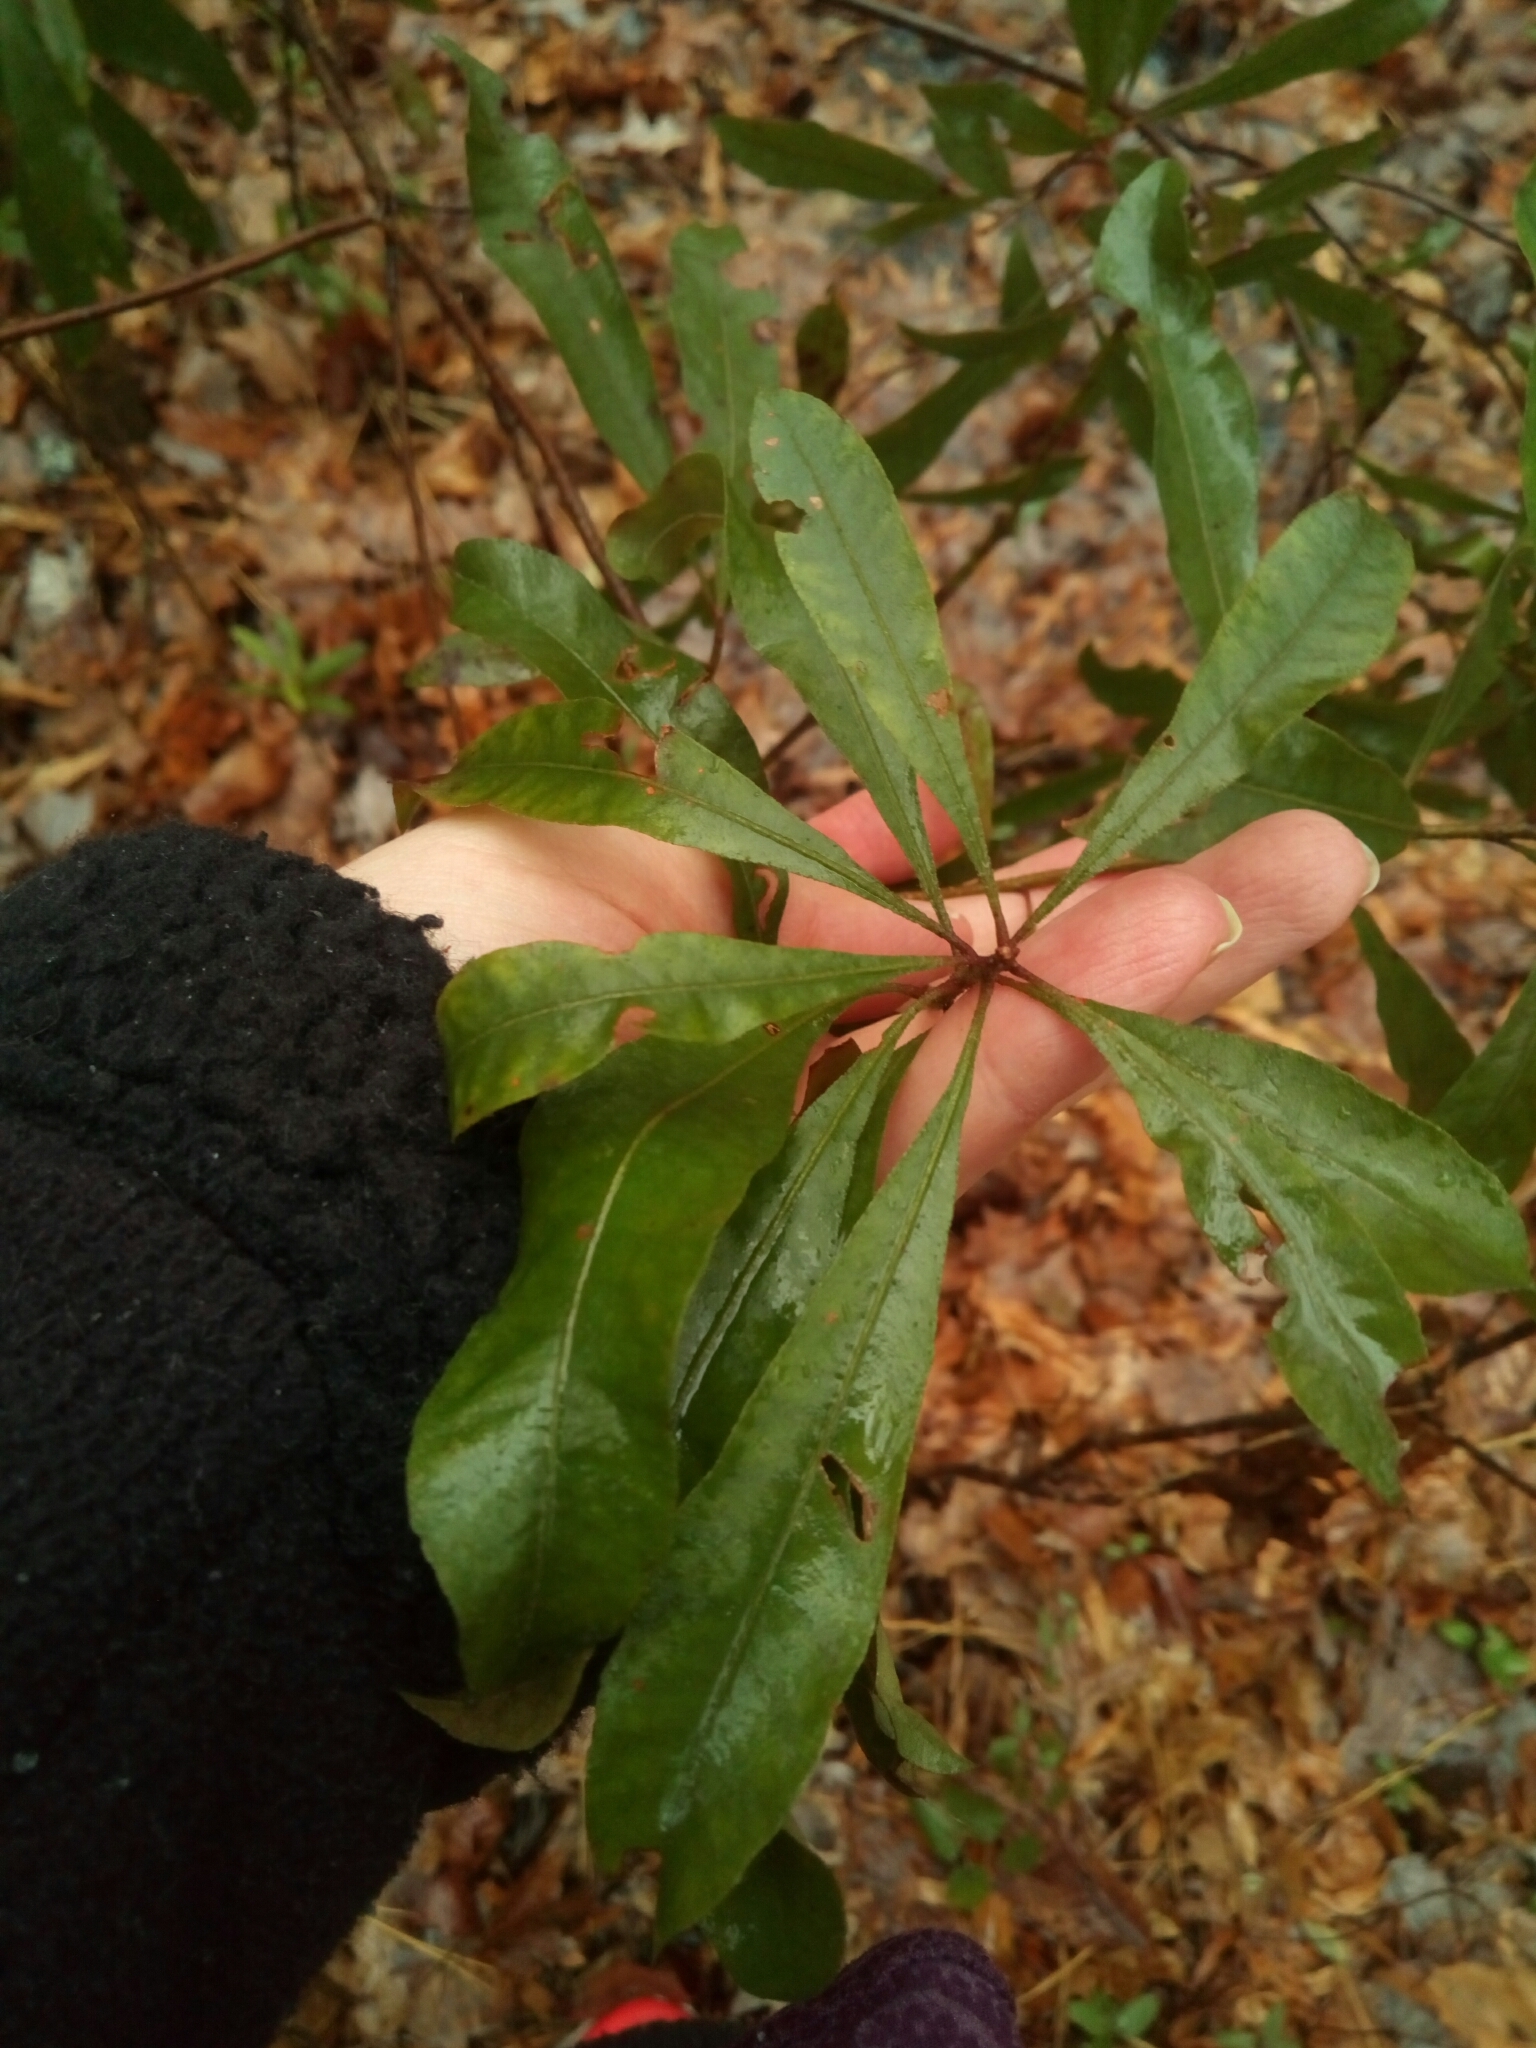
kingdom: Plantae
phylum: Tracheophyta
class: Magnoliopsida
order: Fagales
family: Myricaceae
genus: Morella
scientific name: Morella cerifera
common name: Wax myrtle
